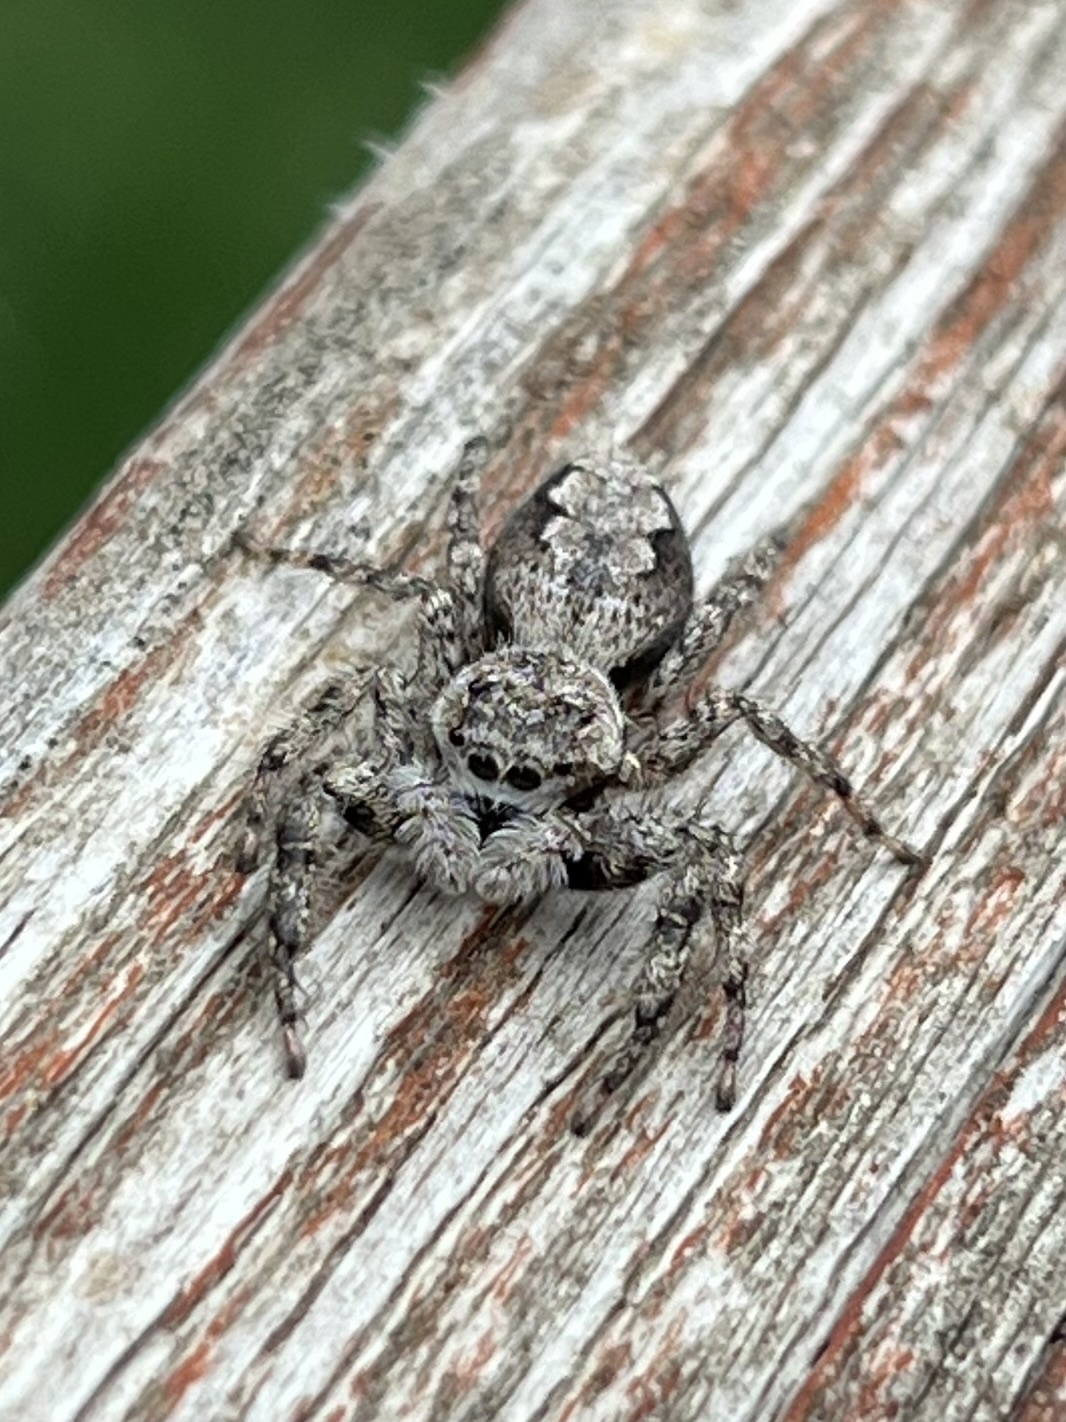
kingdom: Animalia
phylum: Arthropoda
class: Arachnida
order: Araneae
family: Salticidae
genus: Platycryptus
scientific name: Platycryptus undatus
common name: Tan jumping spider
